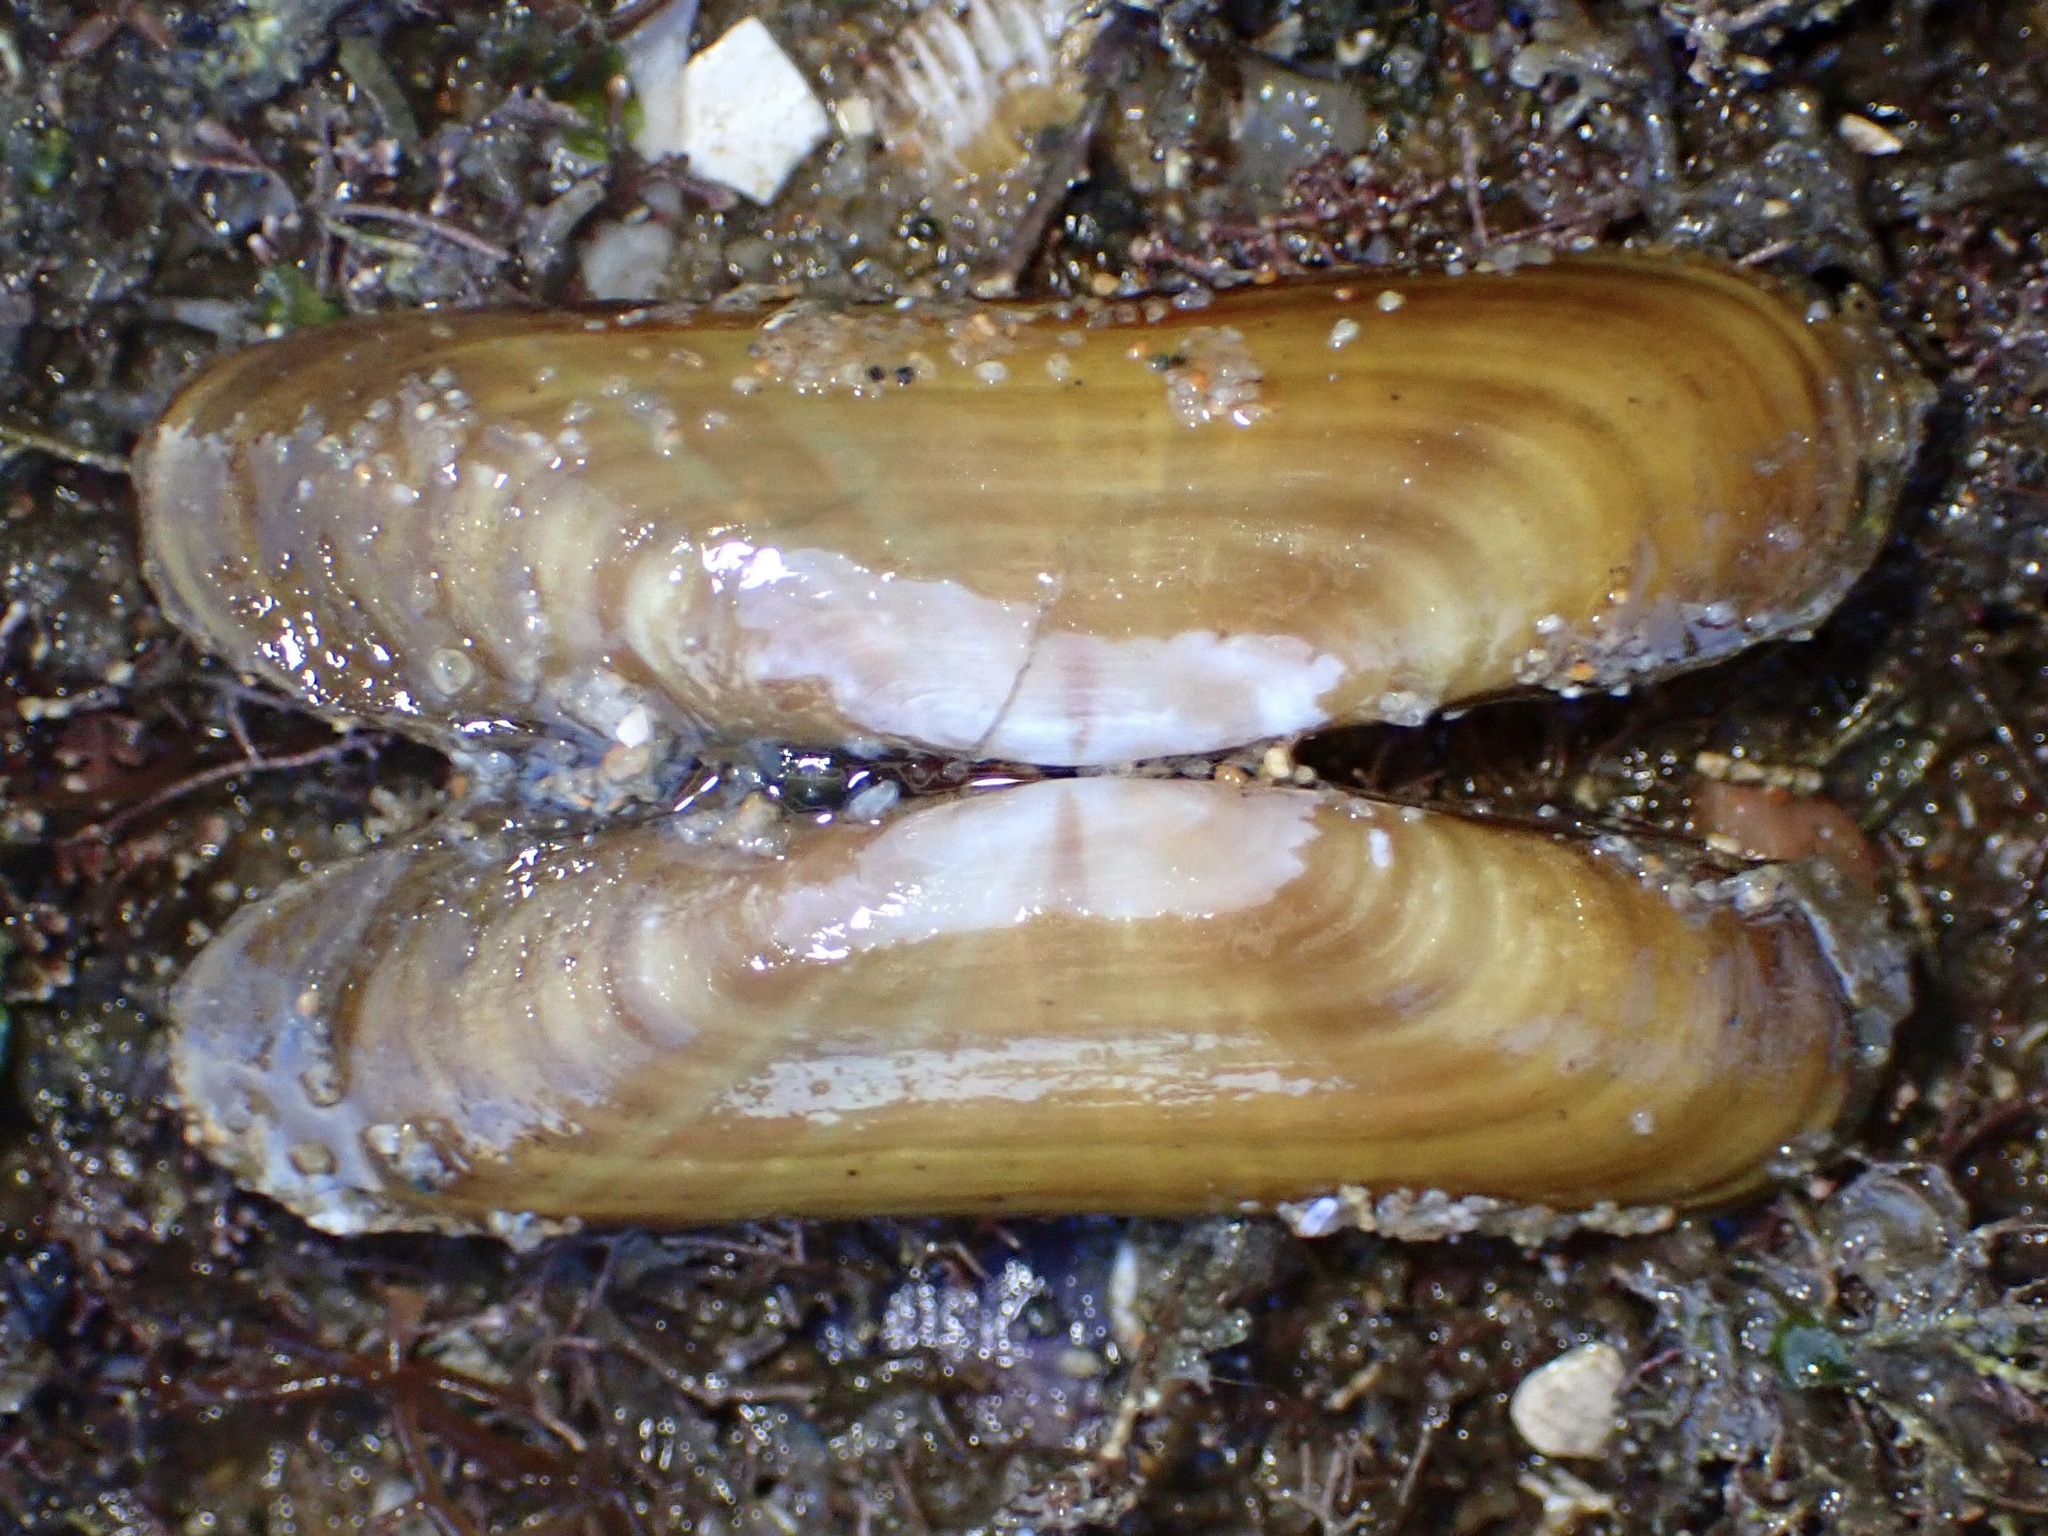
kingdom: Animalia
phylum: Mollusca
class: Bivalvia
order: Cardiida
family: Solecurtidae
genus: Tagelus
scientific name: Tagelus subteres
